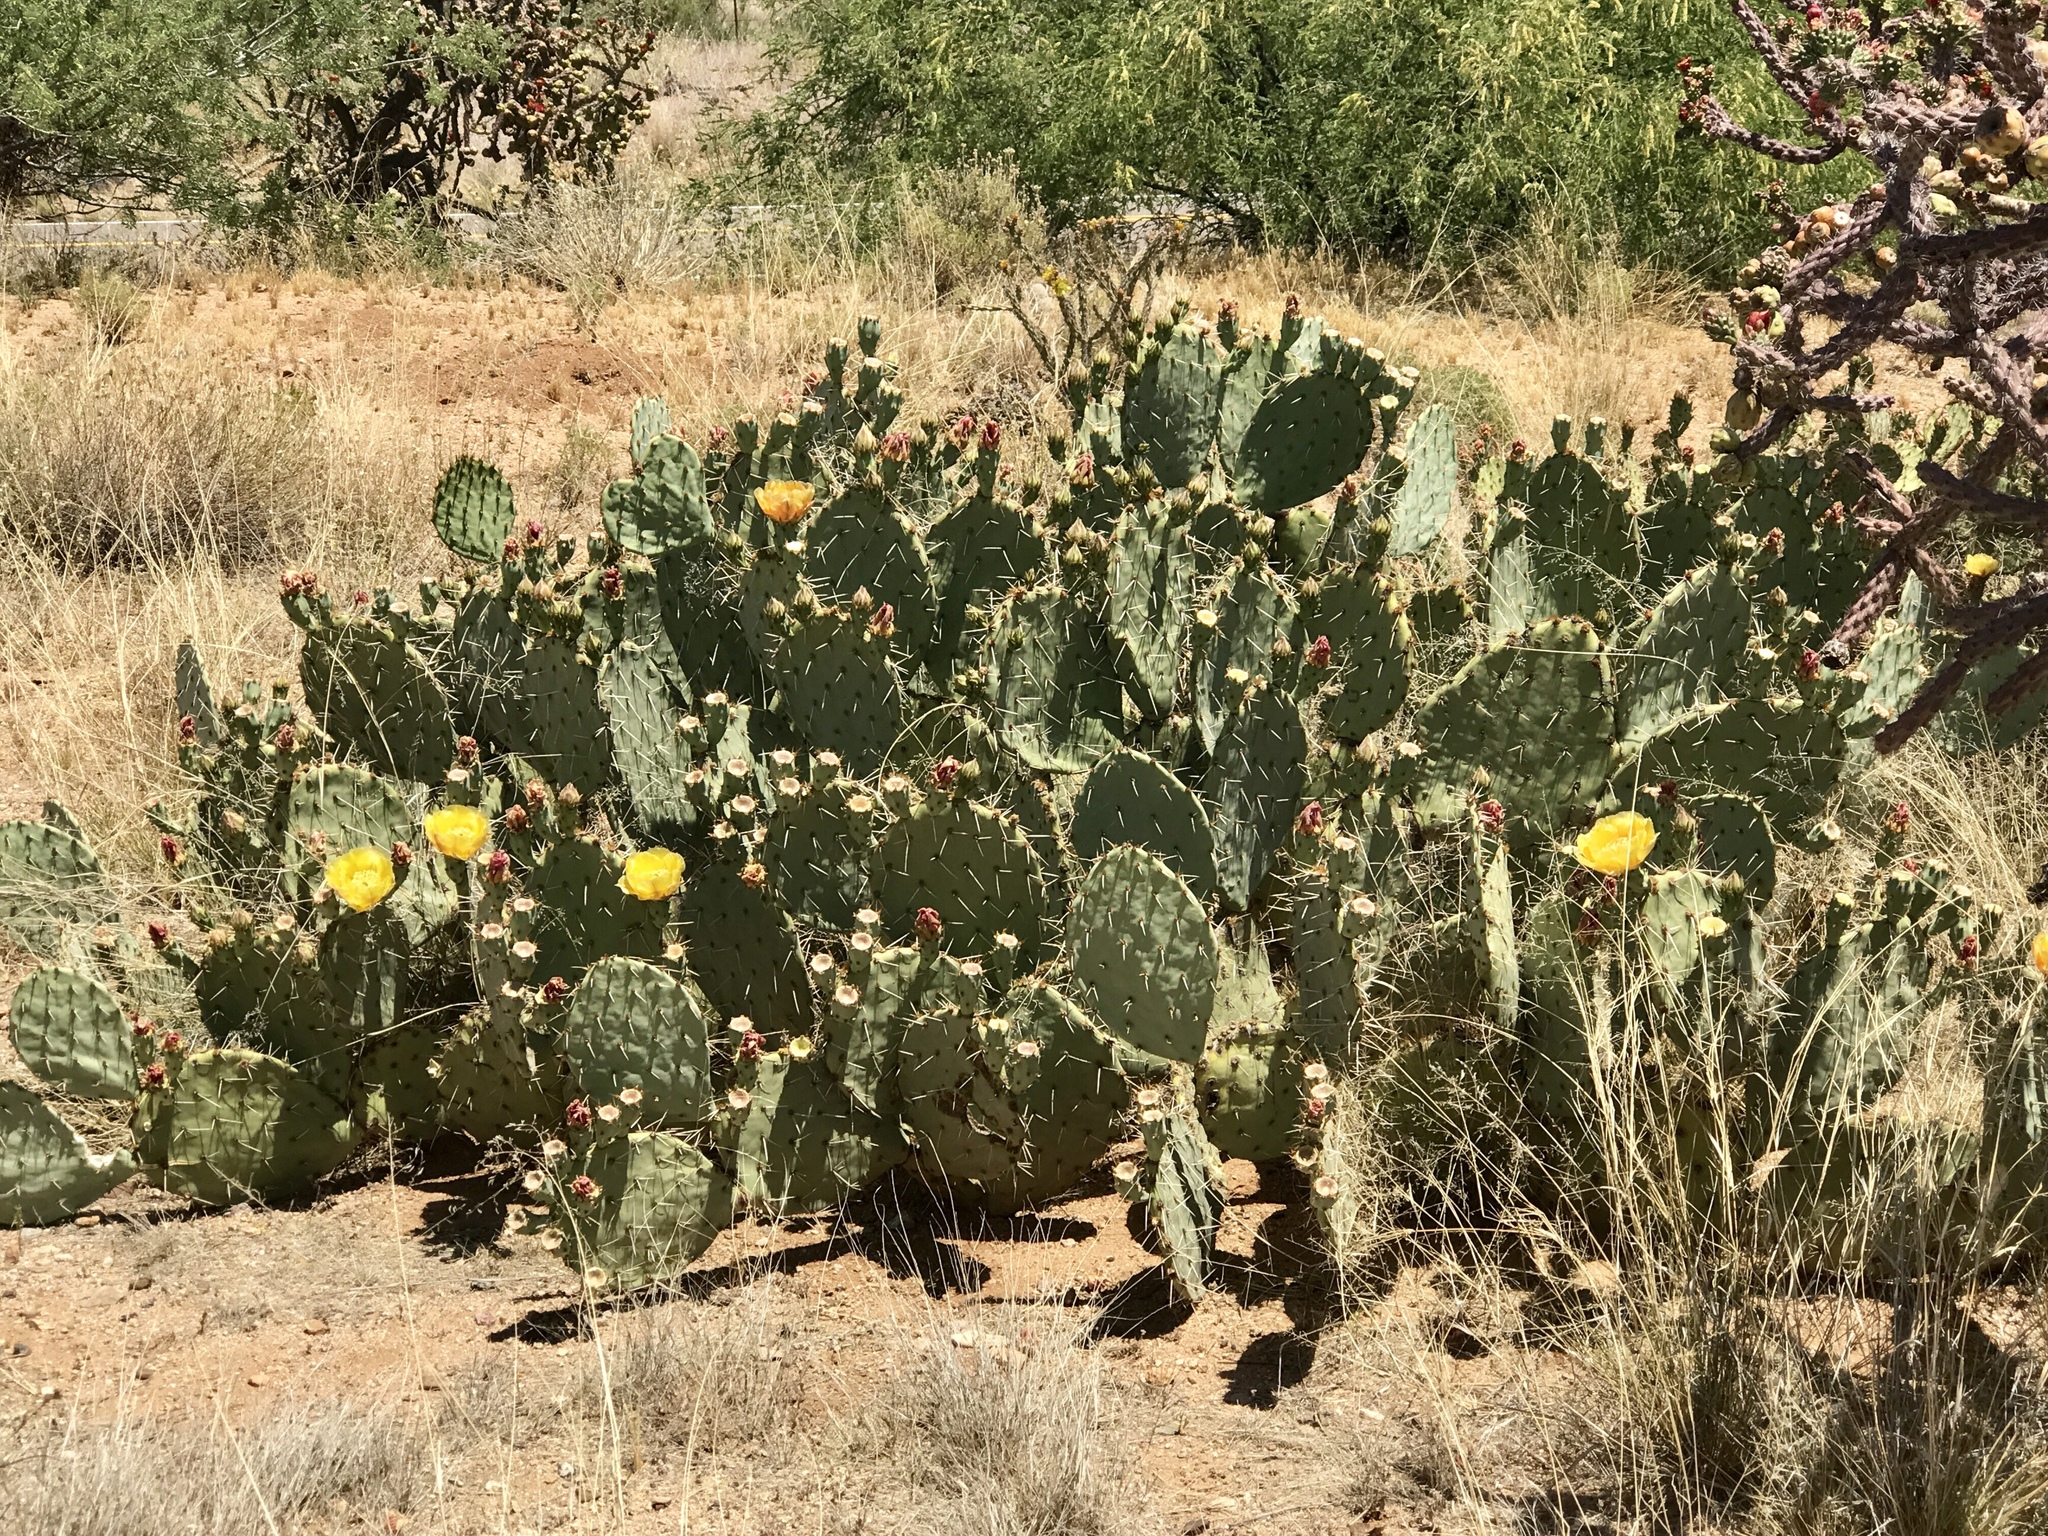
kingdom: Plantae
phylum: Tracheophyta
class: Magnoliopsida
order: Caryophyllales
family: Cactaceae
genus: Opuntia
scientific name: Opuntia engelmannii
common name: Cactus-apple
